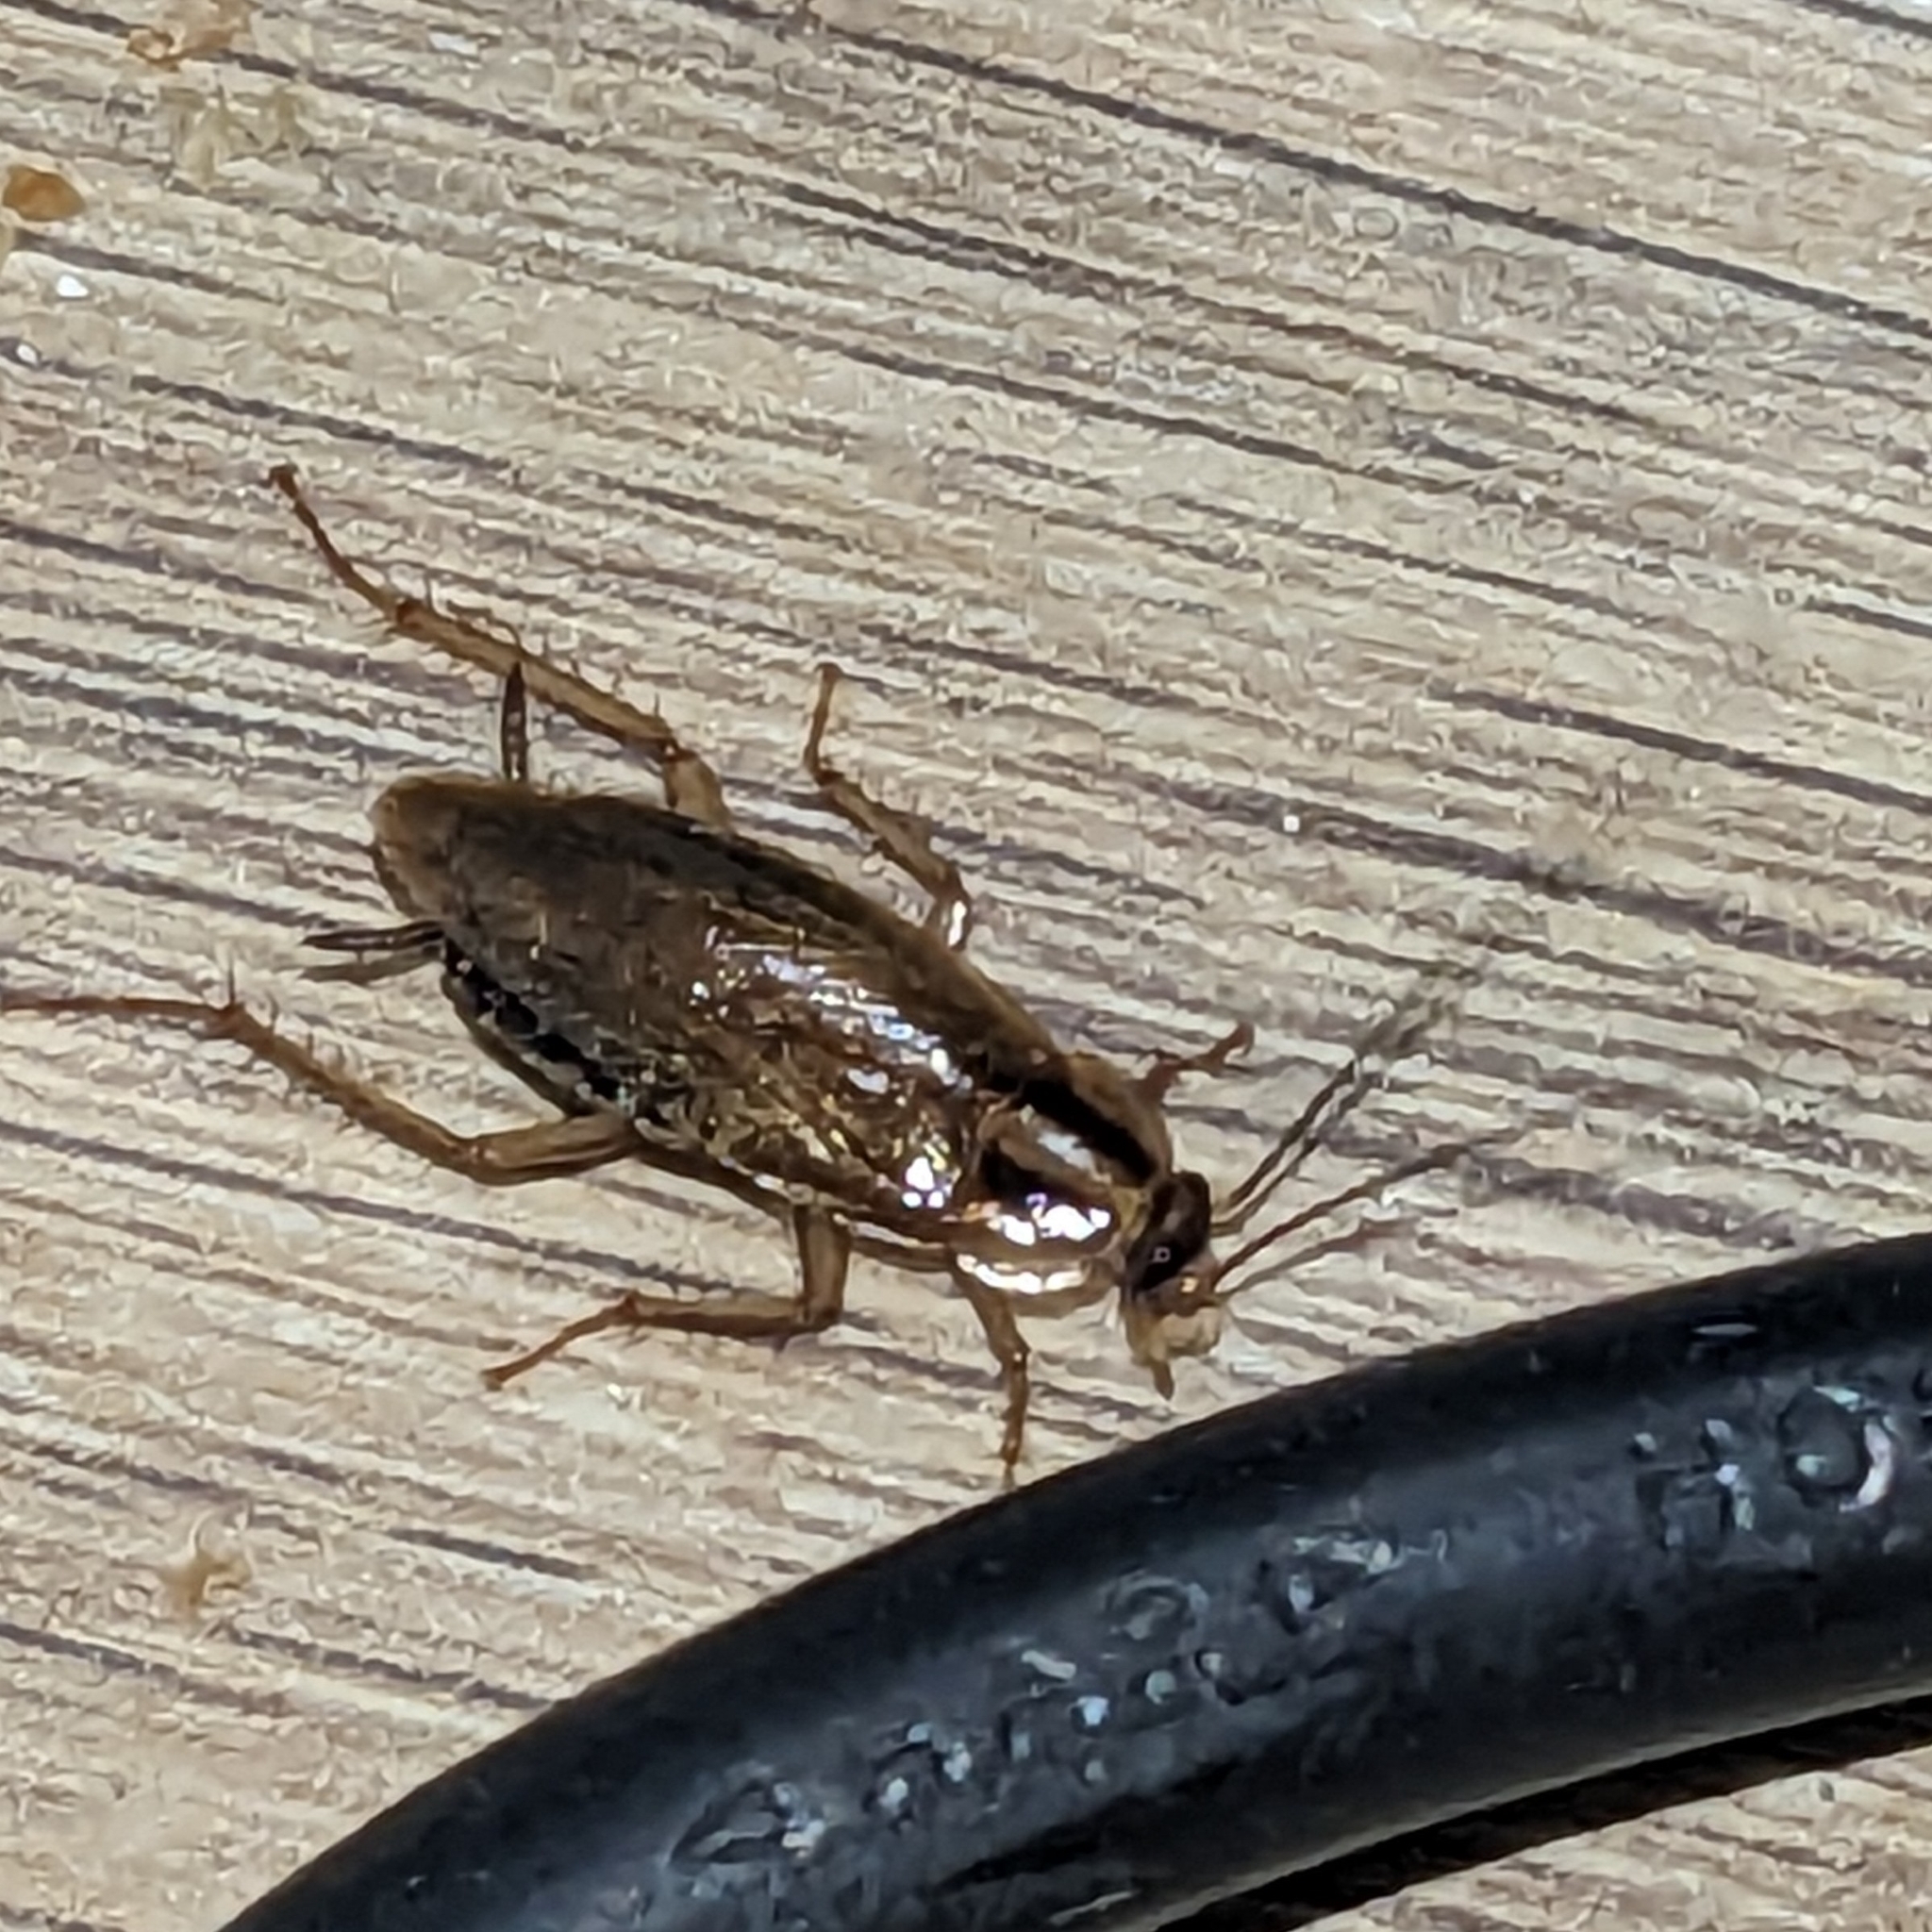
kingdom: Animalia
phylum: Arthropoda
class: Insecta
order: Blattodea
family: Ectobiidae
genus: Blattella
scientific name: Blattella germanica
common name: German cockroach
